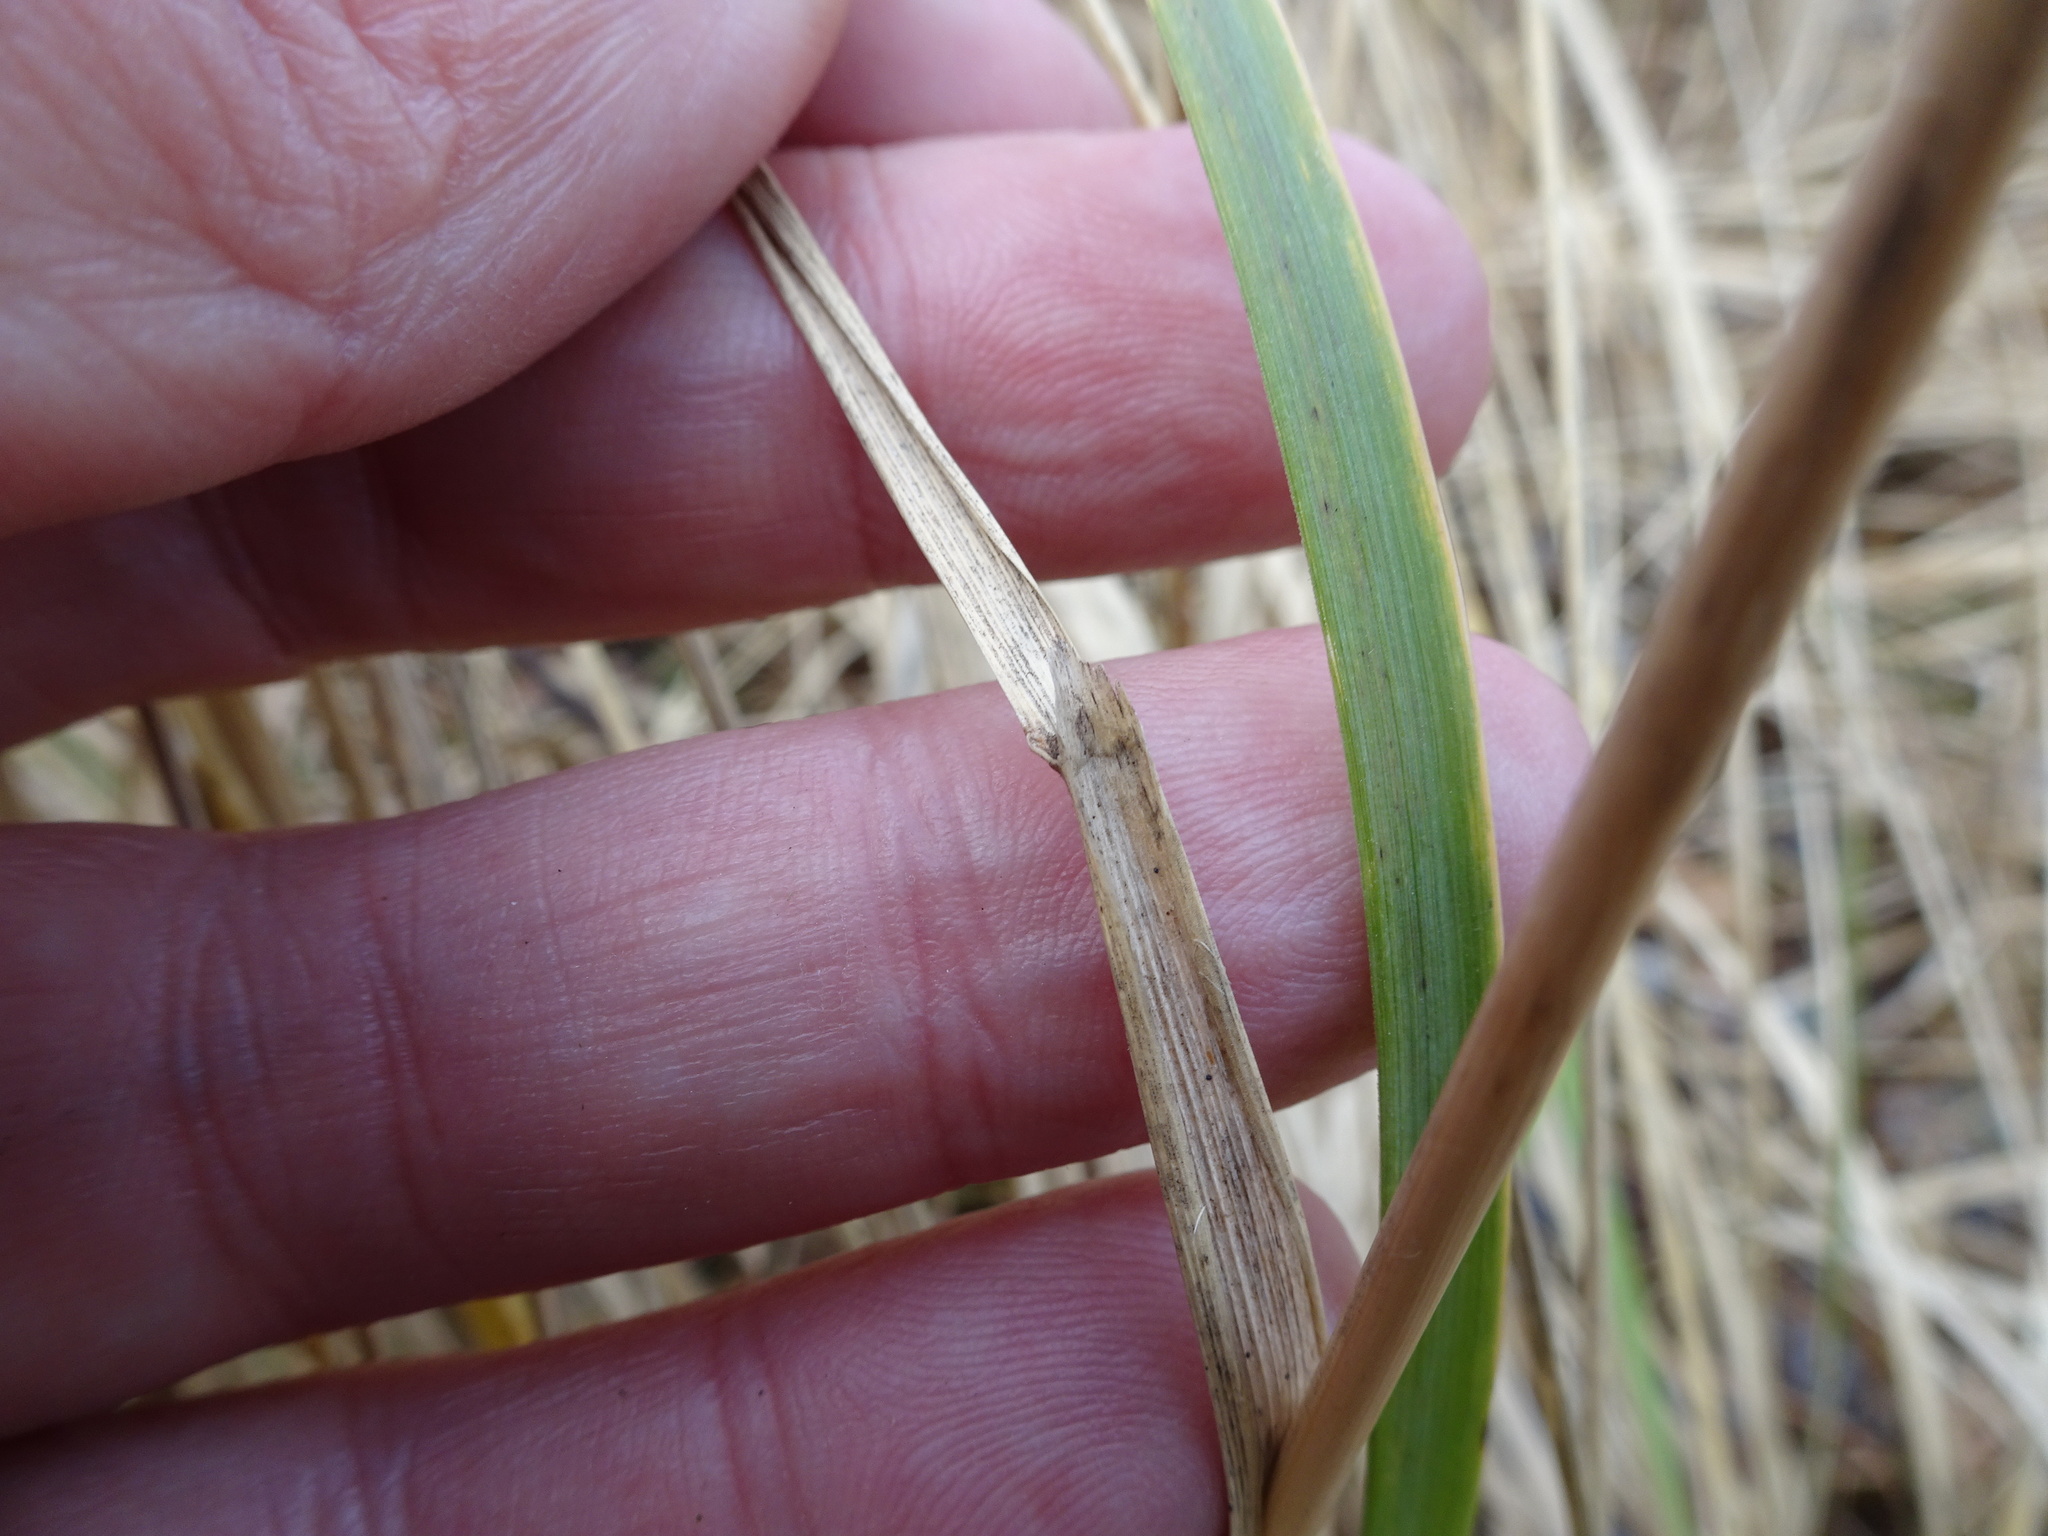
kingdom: Plantae
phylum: Tracheophyta
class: Liliopsida
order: Poales
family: Poaceae
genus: Calamagrostis
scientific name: Calamagrostis epigejos
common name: Wood small-reed
